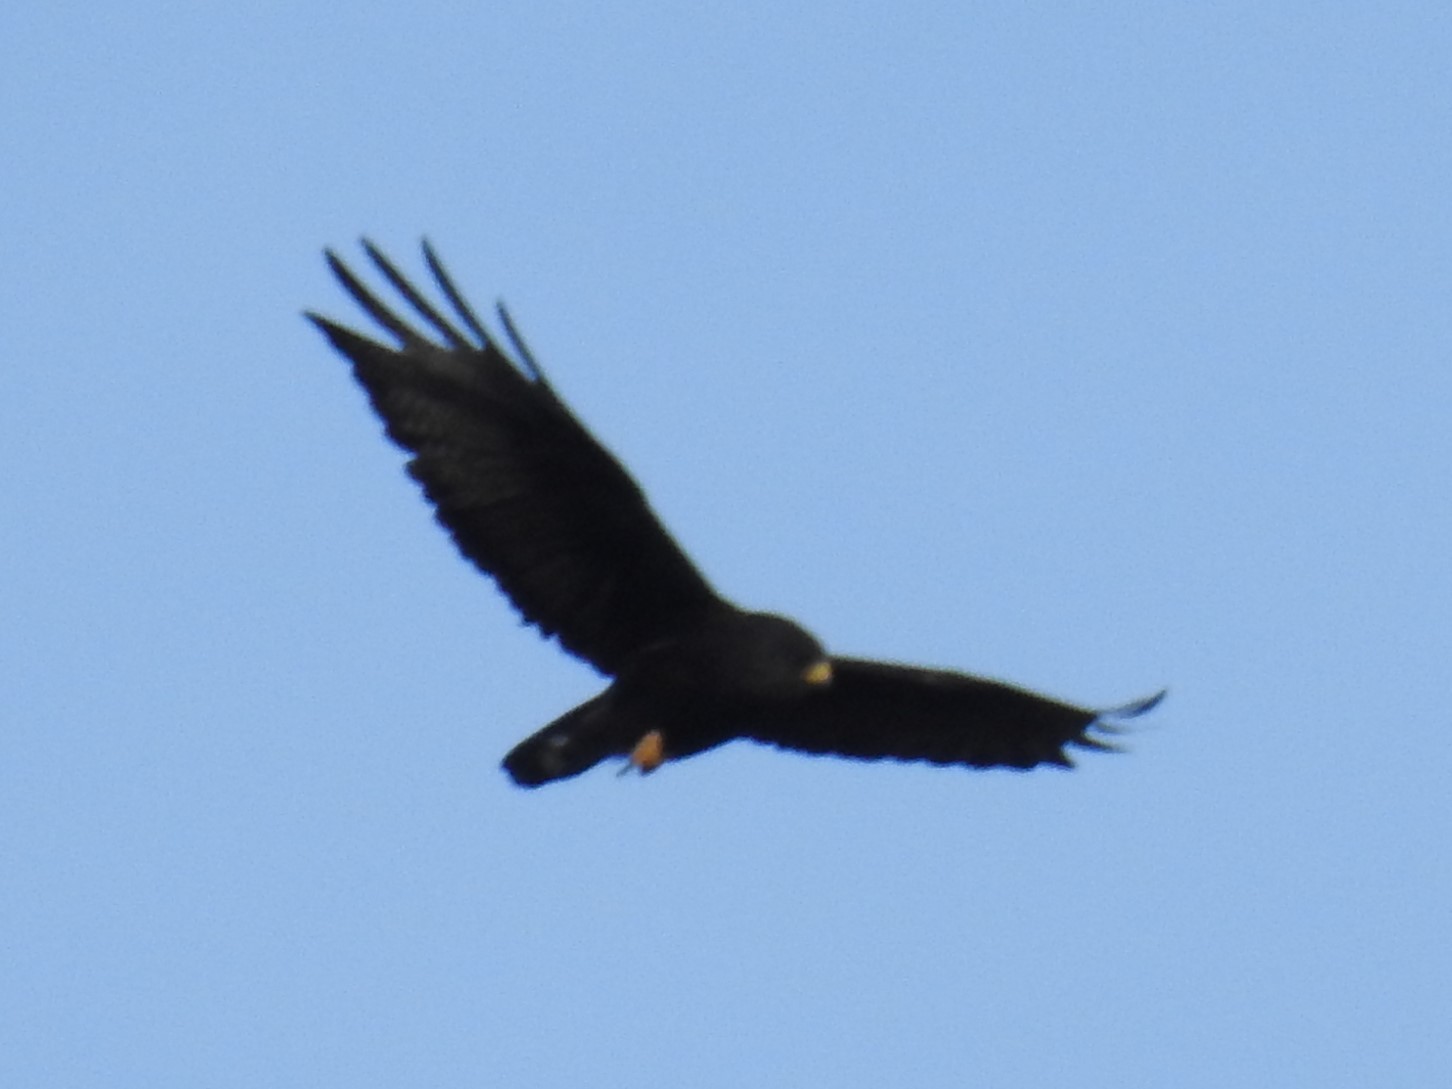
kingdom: Animalia
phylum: Chordata
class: Aves
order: Accipitriformes
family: Accipitridae
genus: Buteo
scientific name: Buteo albonotatus
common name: Zone-tailed hawk
